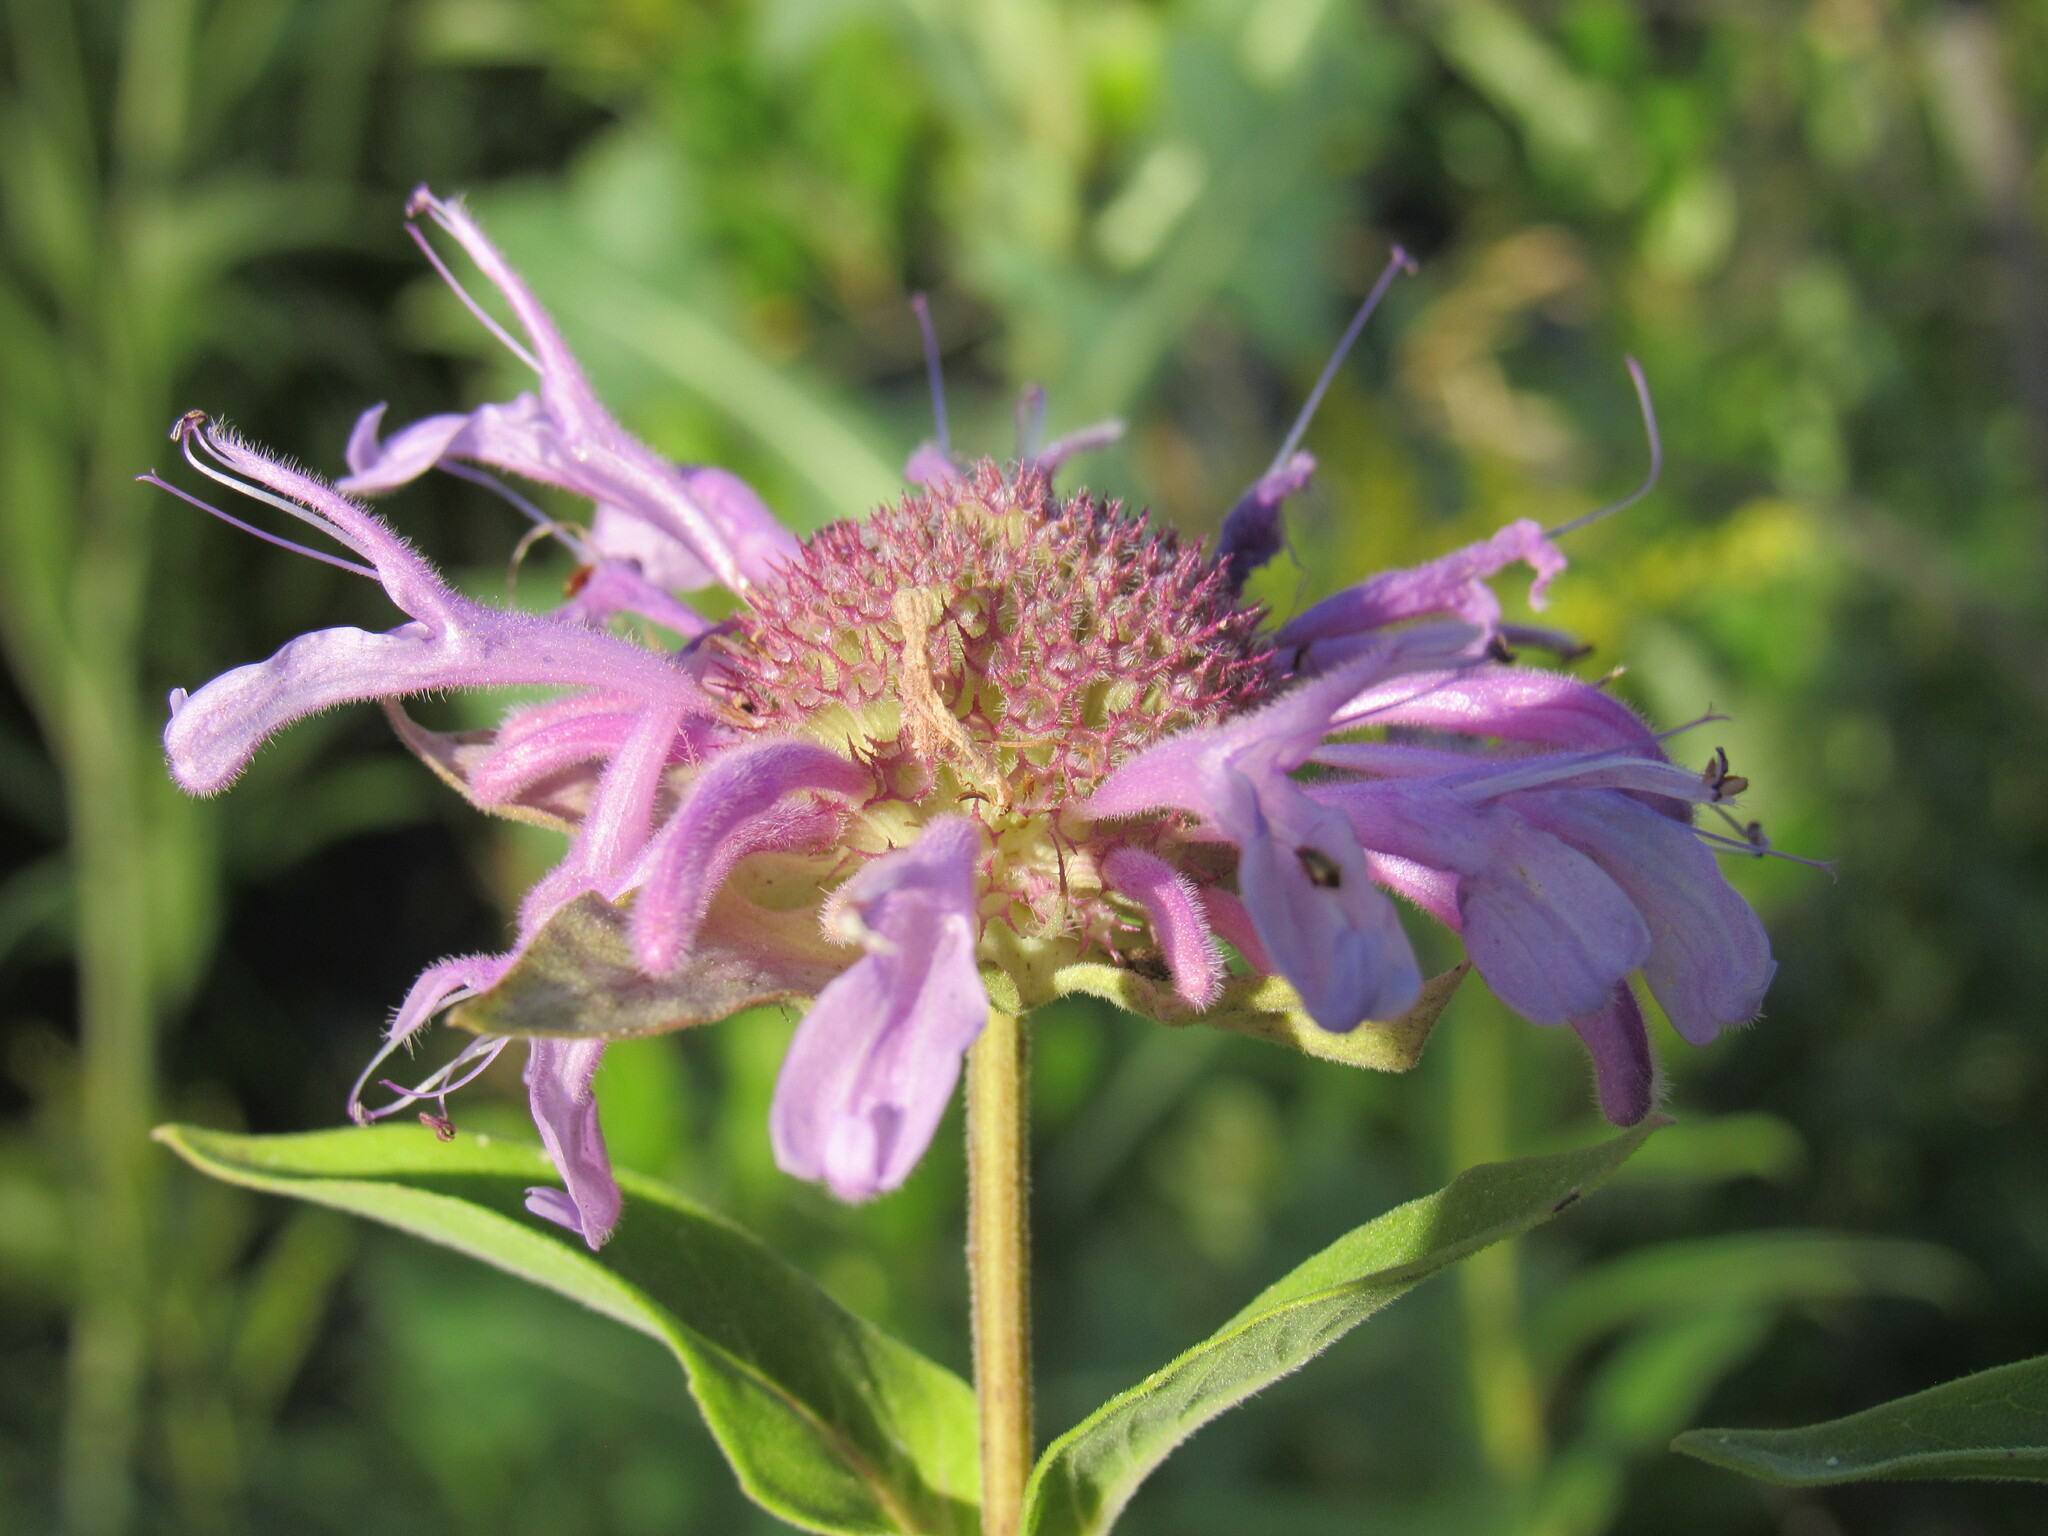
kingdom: Plantae
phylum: Tracheophyta
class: Magnoliopsida
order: Lamiales
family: Lamiaceae
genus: Monarda
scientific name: Monarda fistulosa
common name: Purple beebalm
